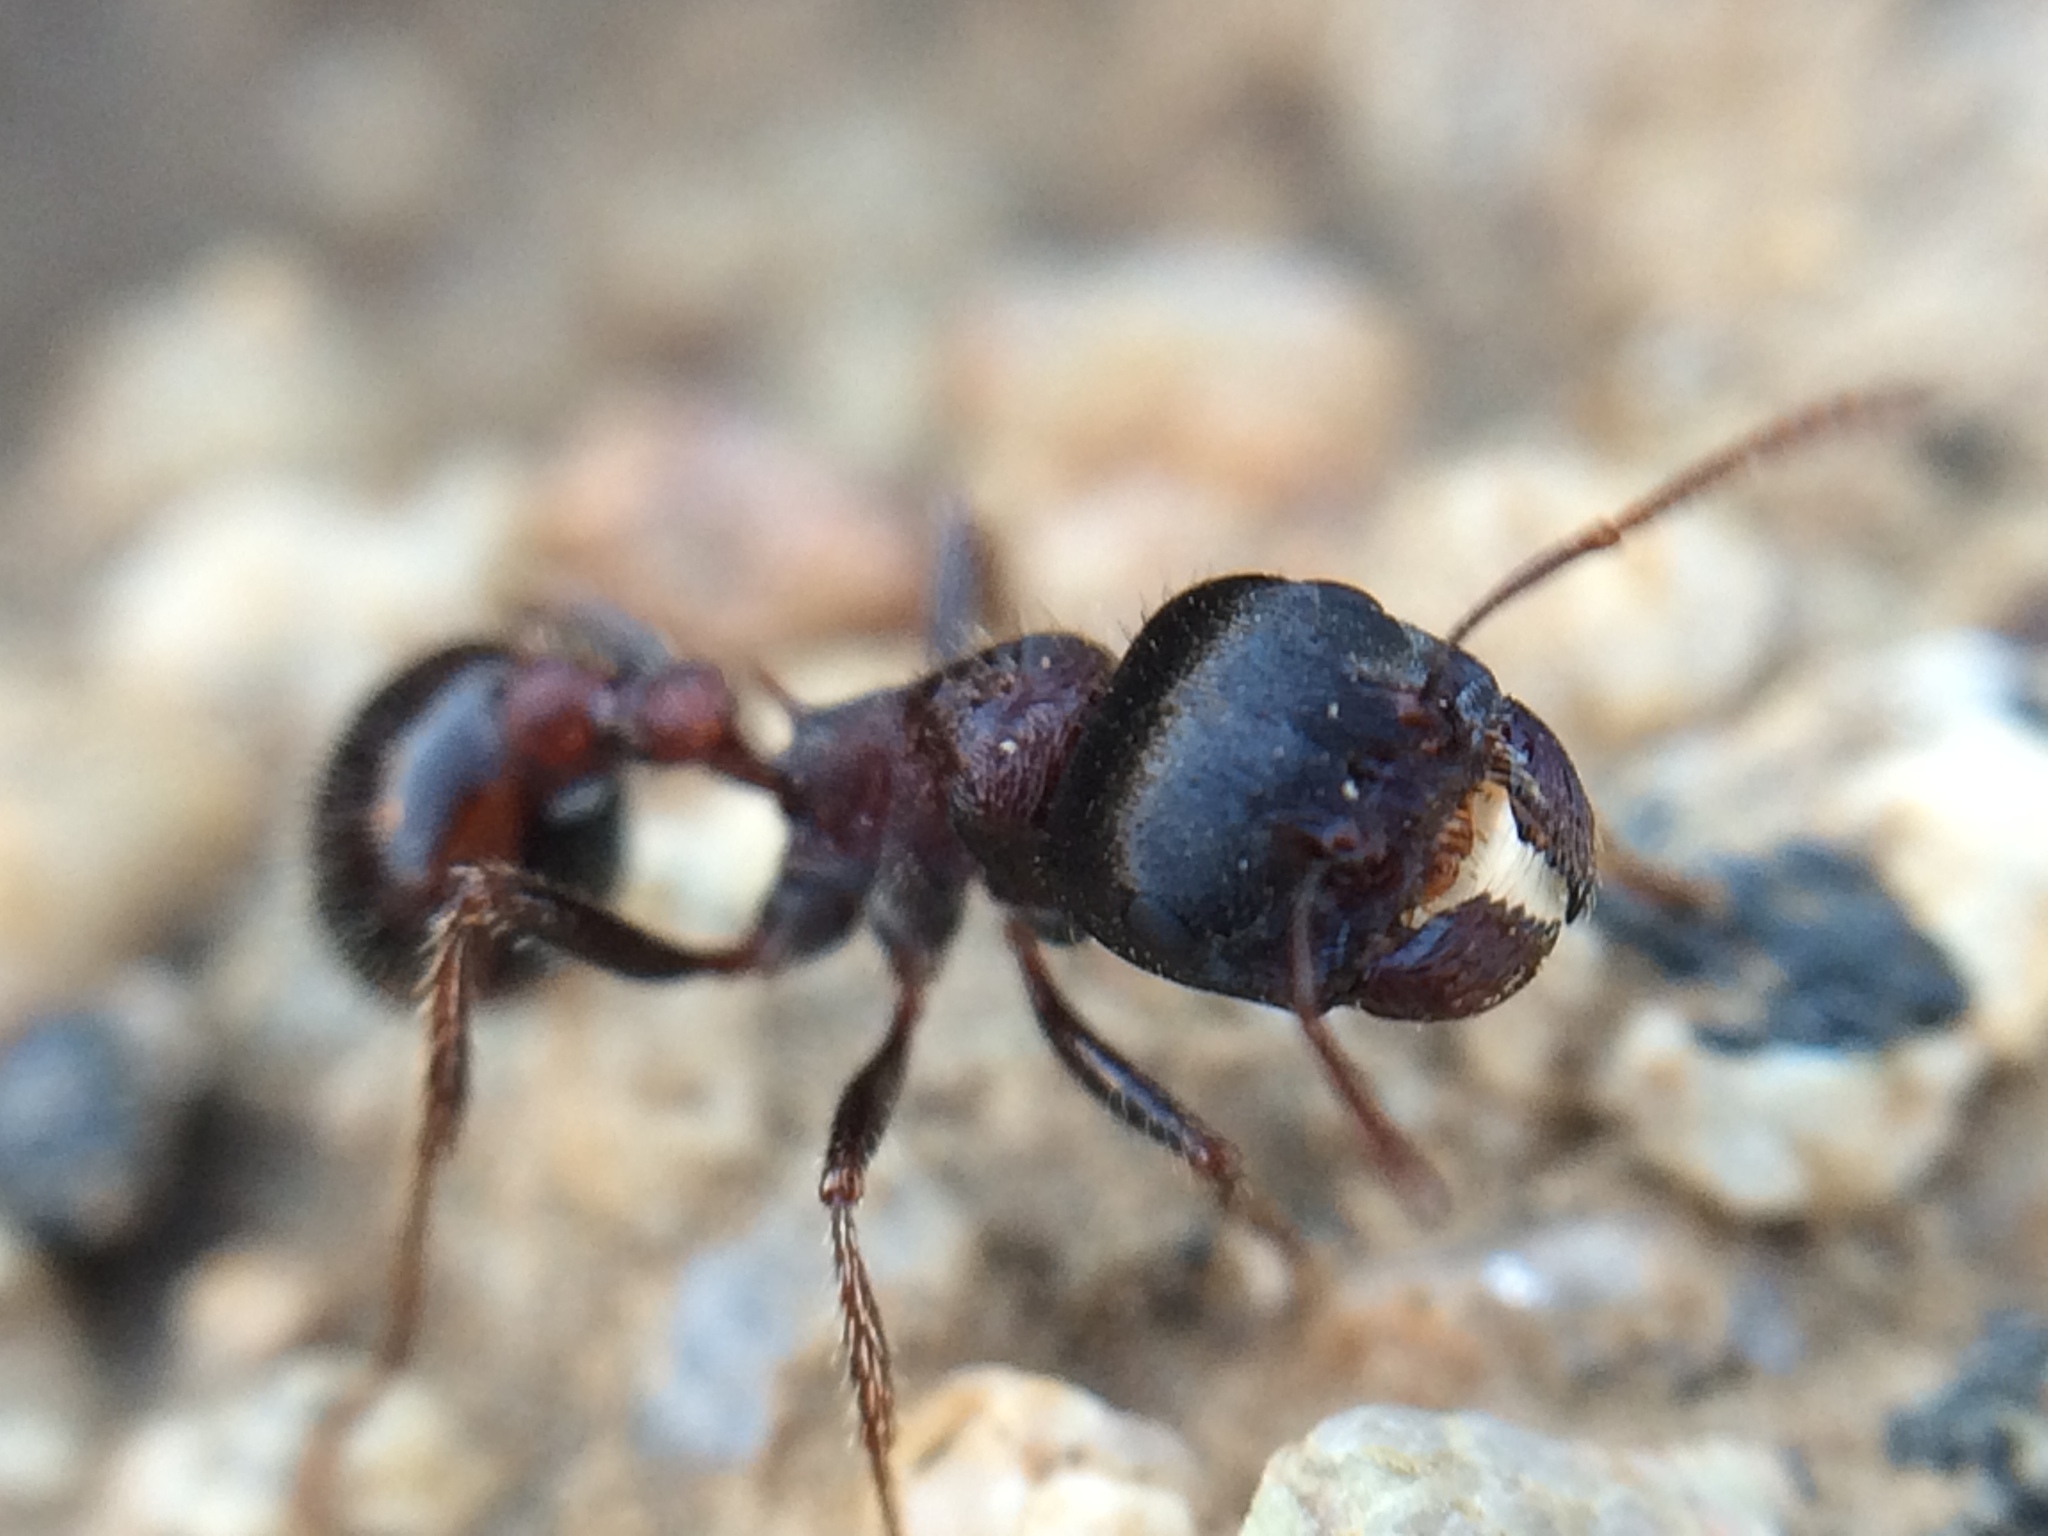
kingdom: Animalia
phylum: Arthropoda
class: Insecta
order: Hymenoptera
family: Formicidae
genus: Pogonomyrmex
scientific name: Pogonomyrmex rugosus
